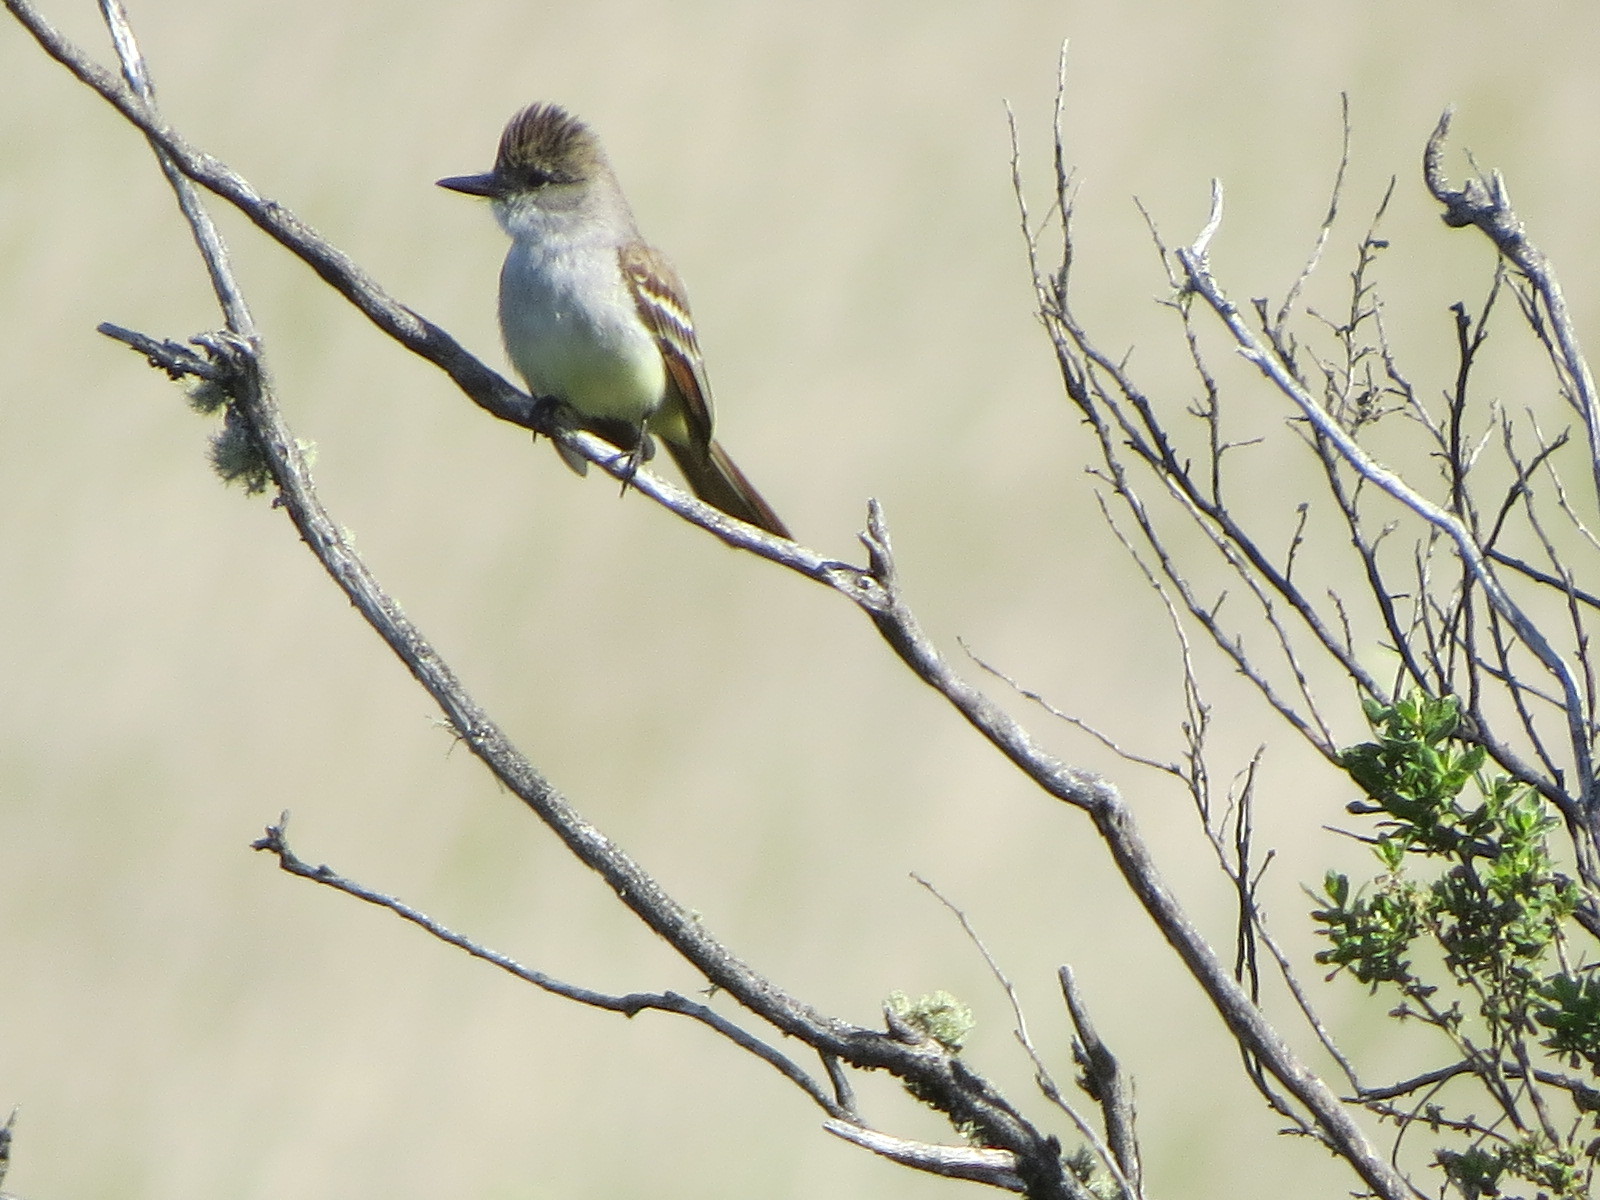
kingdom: Animalia
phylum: Chordata
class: Aves
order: Passeriformes
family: Tyrannidae
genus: Myiarchus
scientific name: Myiarchus cinerascens
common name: Ash-throated flycatcher
